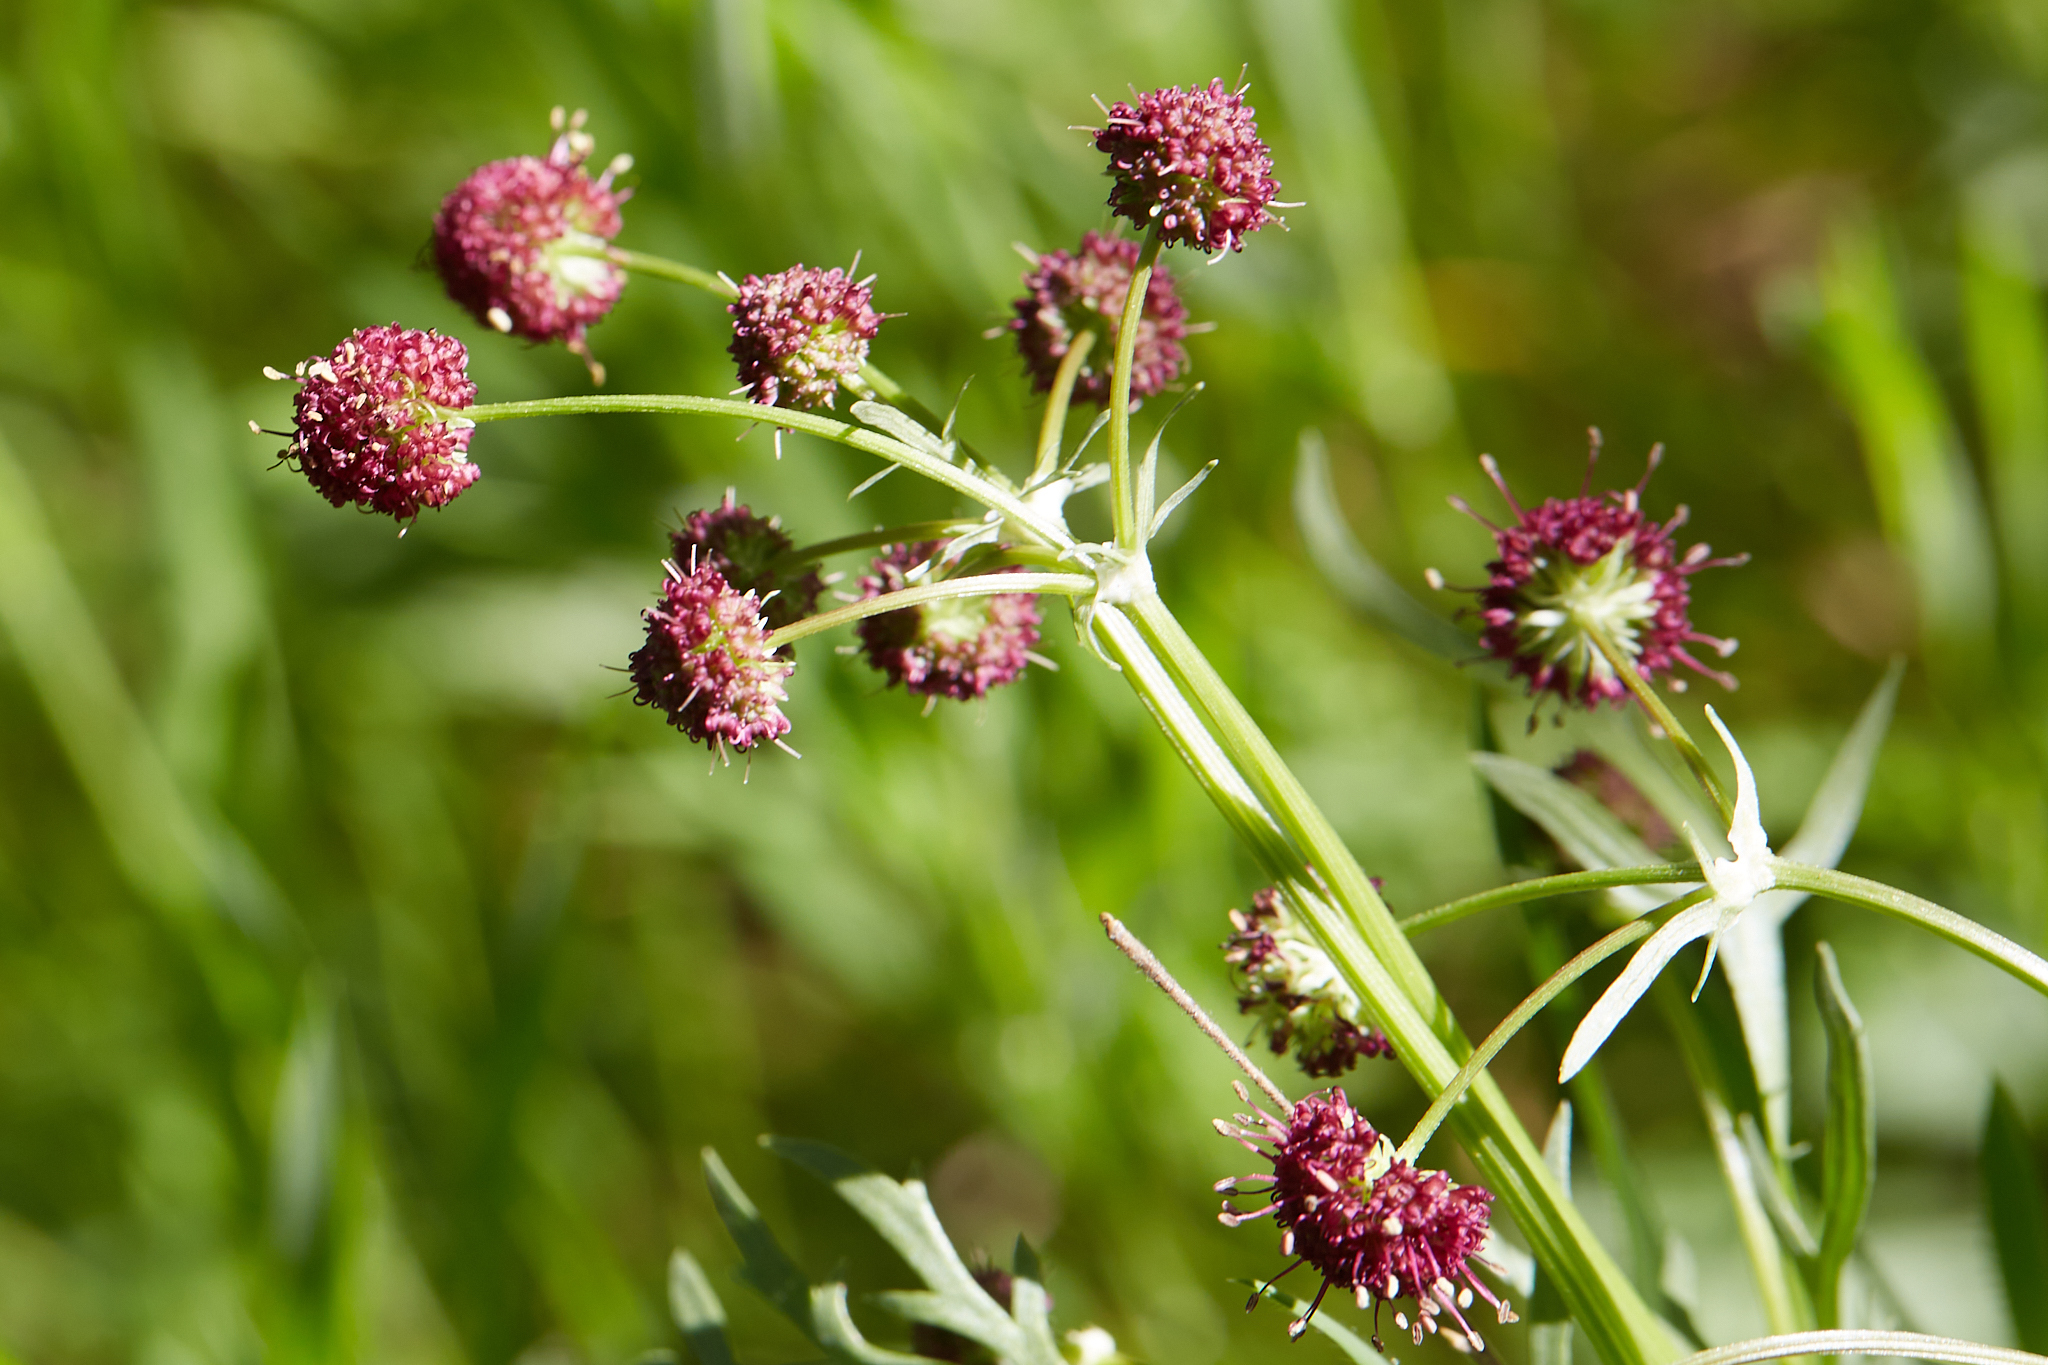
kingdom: Plantae
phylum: Tracheophyta
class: Magnoliopsida
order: Apiales
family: Apiaceae
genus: Sanicula
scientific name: Sanicula bipinnatifida
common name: Shoe-buttons
